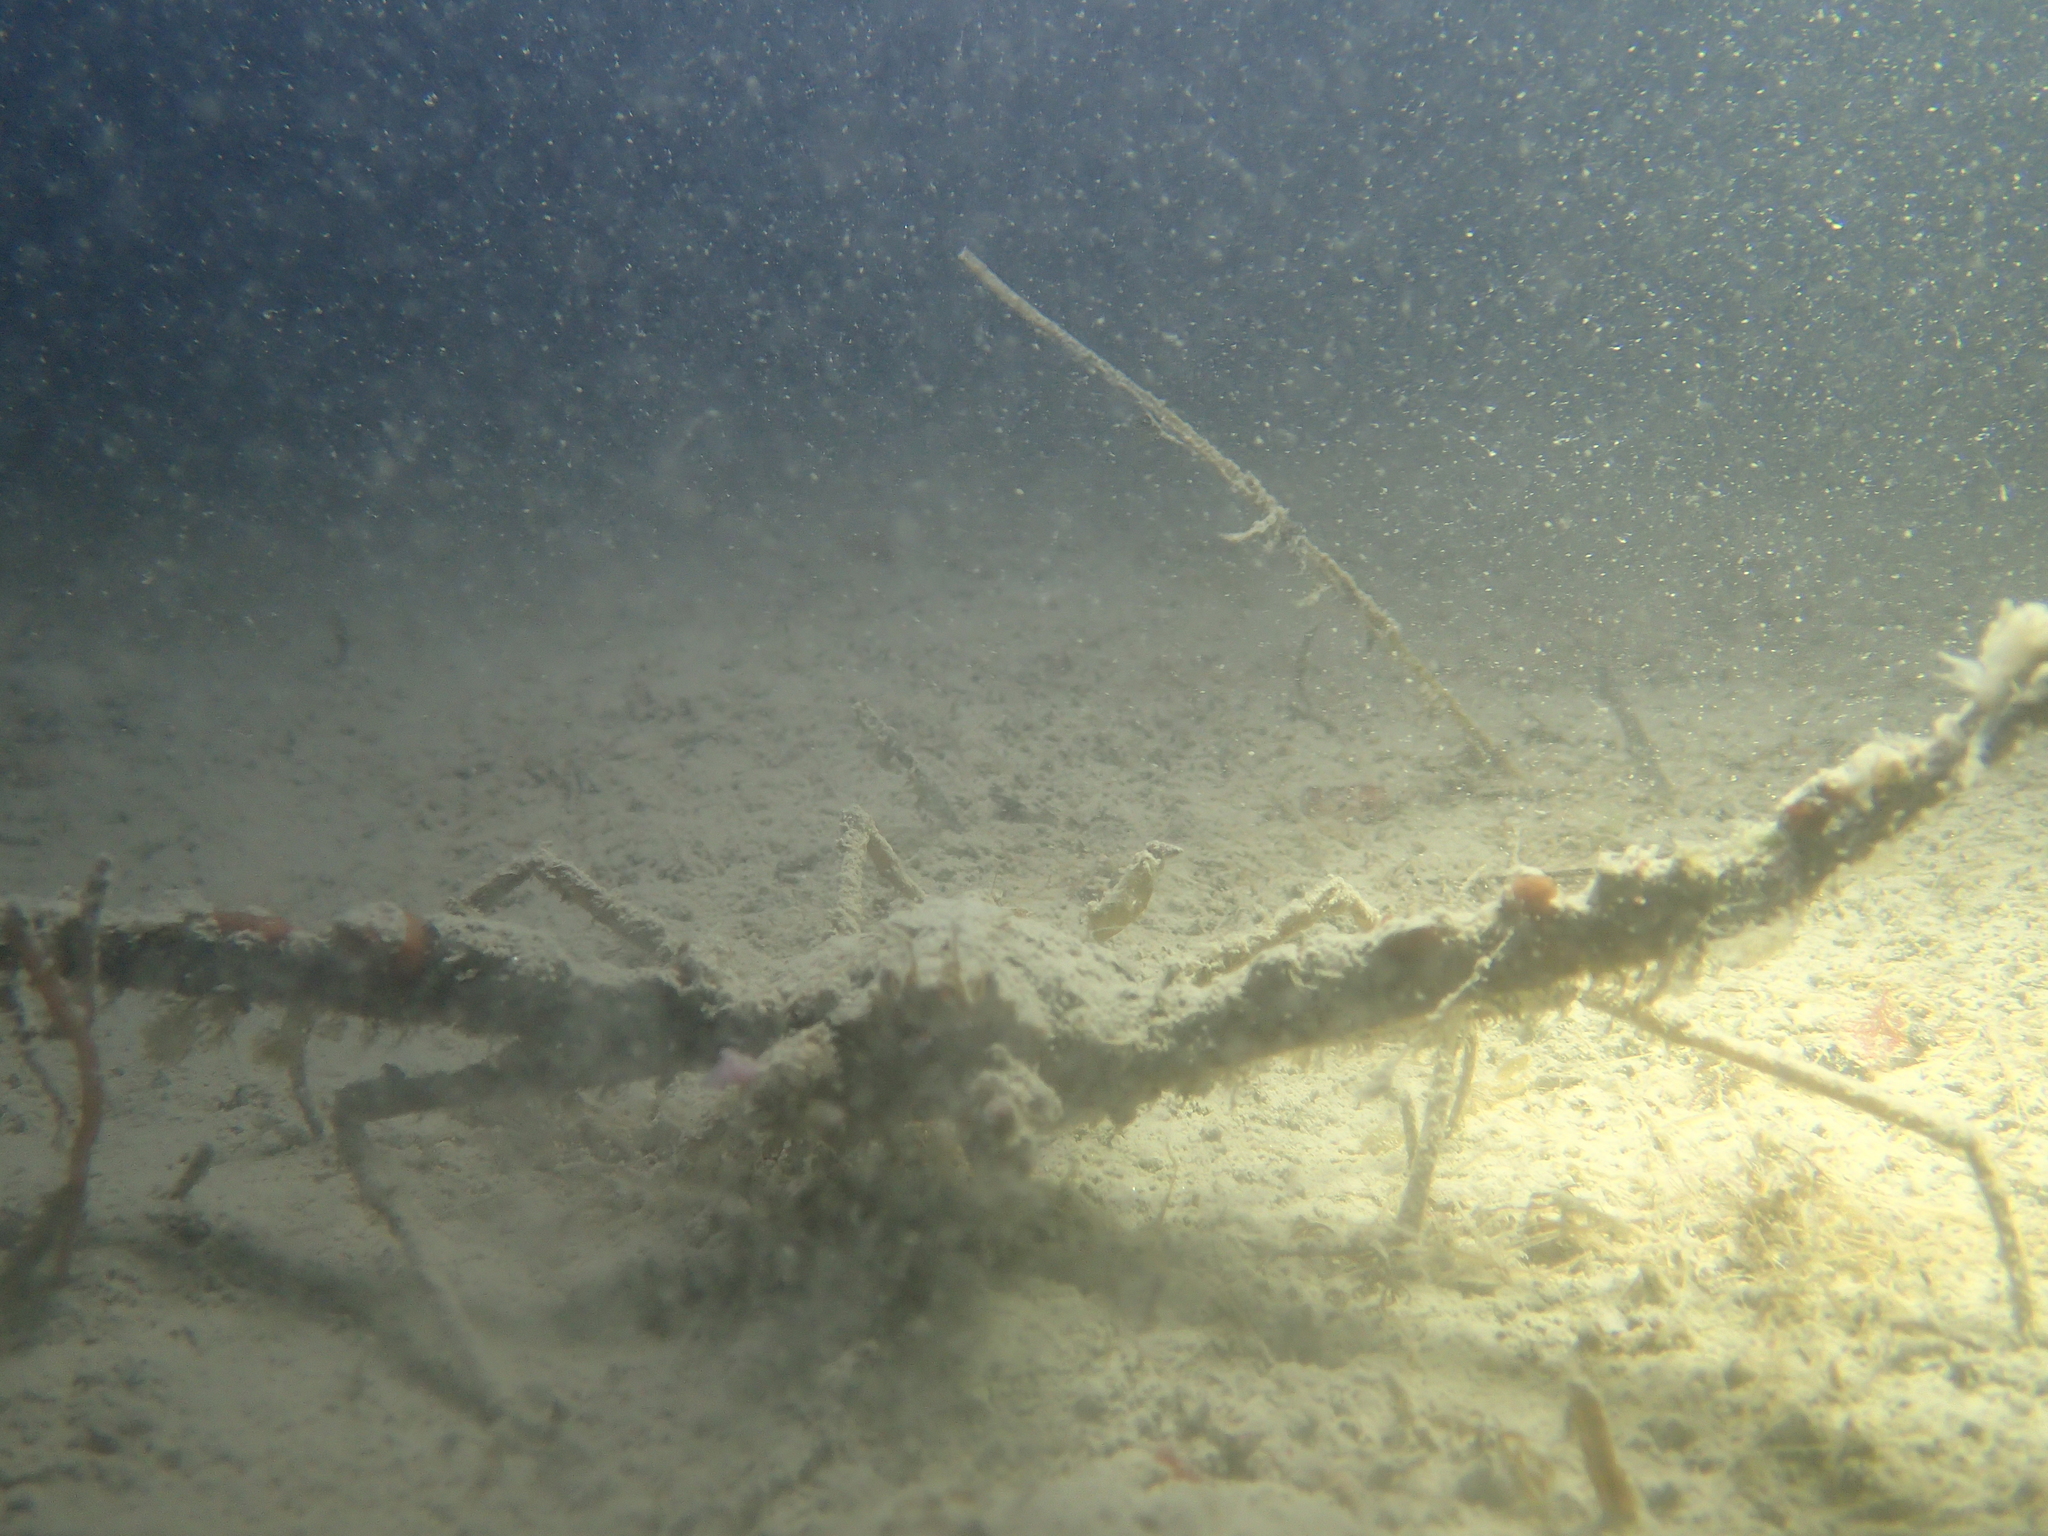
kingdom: Animalia
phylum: Arthropoda
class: Malacostraca
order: Decapoda
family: Inachidae
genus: Inachus
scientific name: Inachus communissimus
